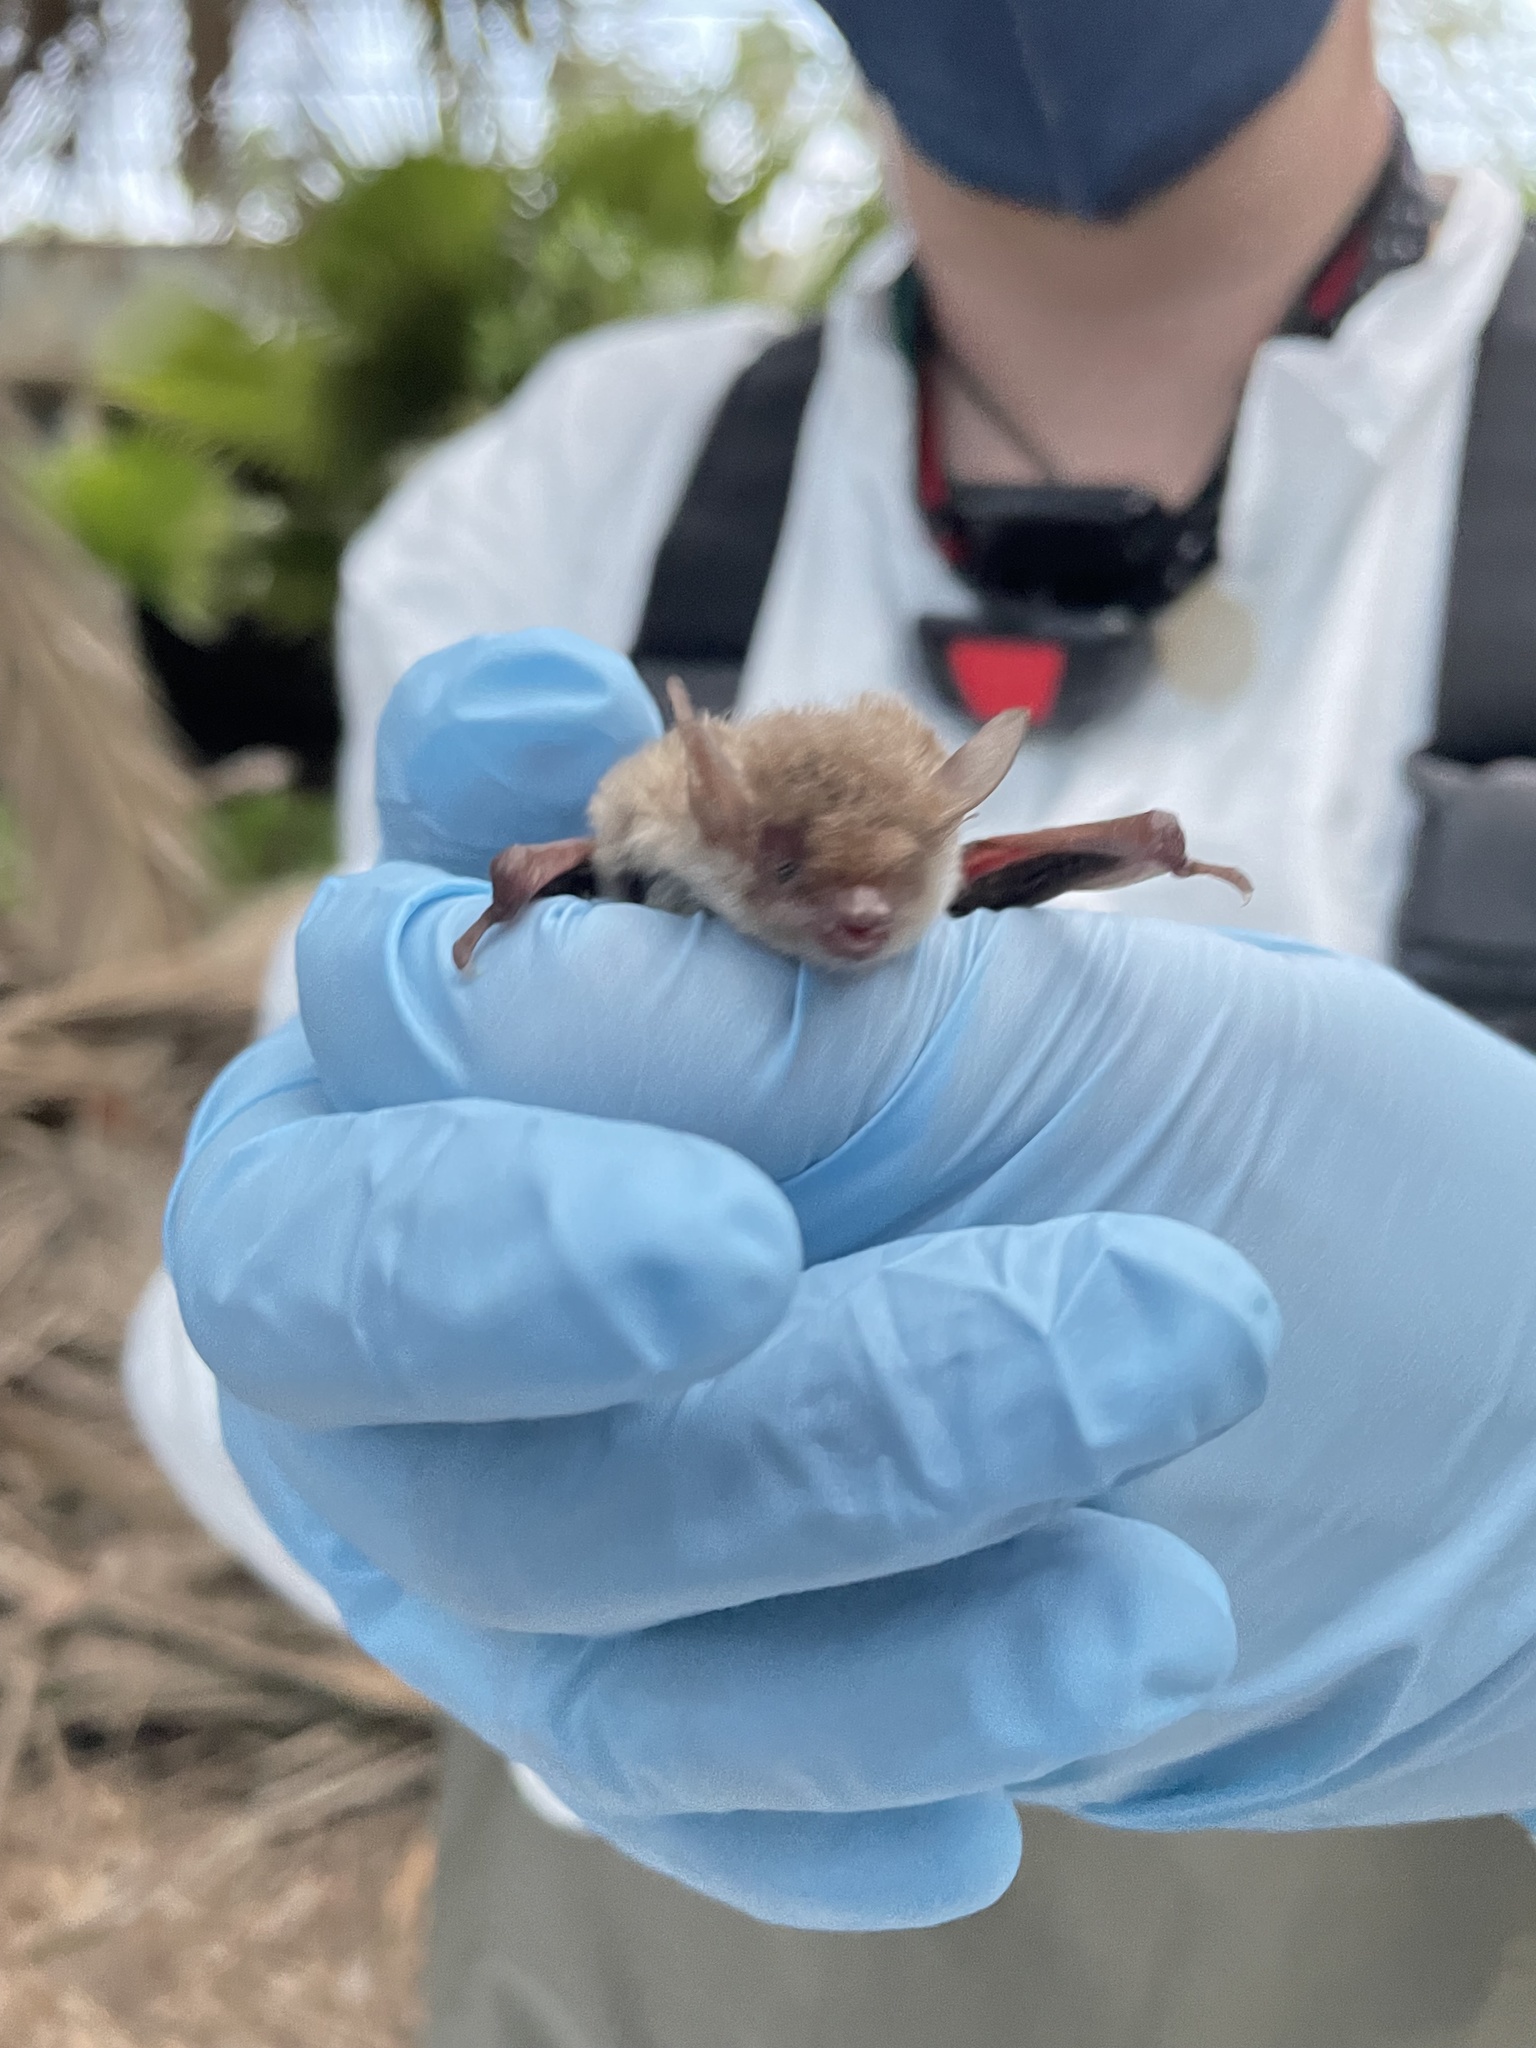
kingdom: Animalia
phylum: Chordata
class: Mammalia
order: Chiroptera
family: Vespertilionidae
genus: Myotis
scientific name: Myotis yumanensis
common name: Yuma myotis
